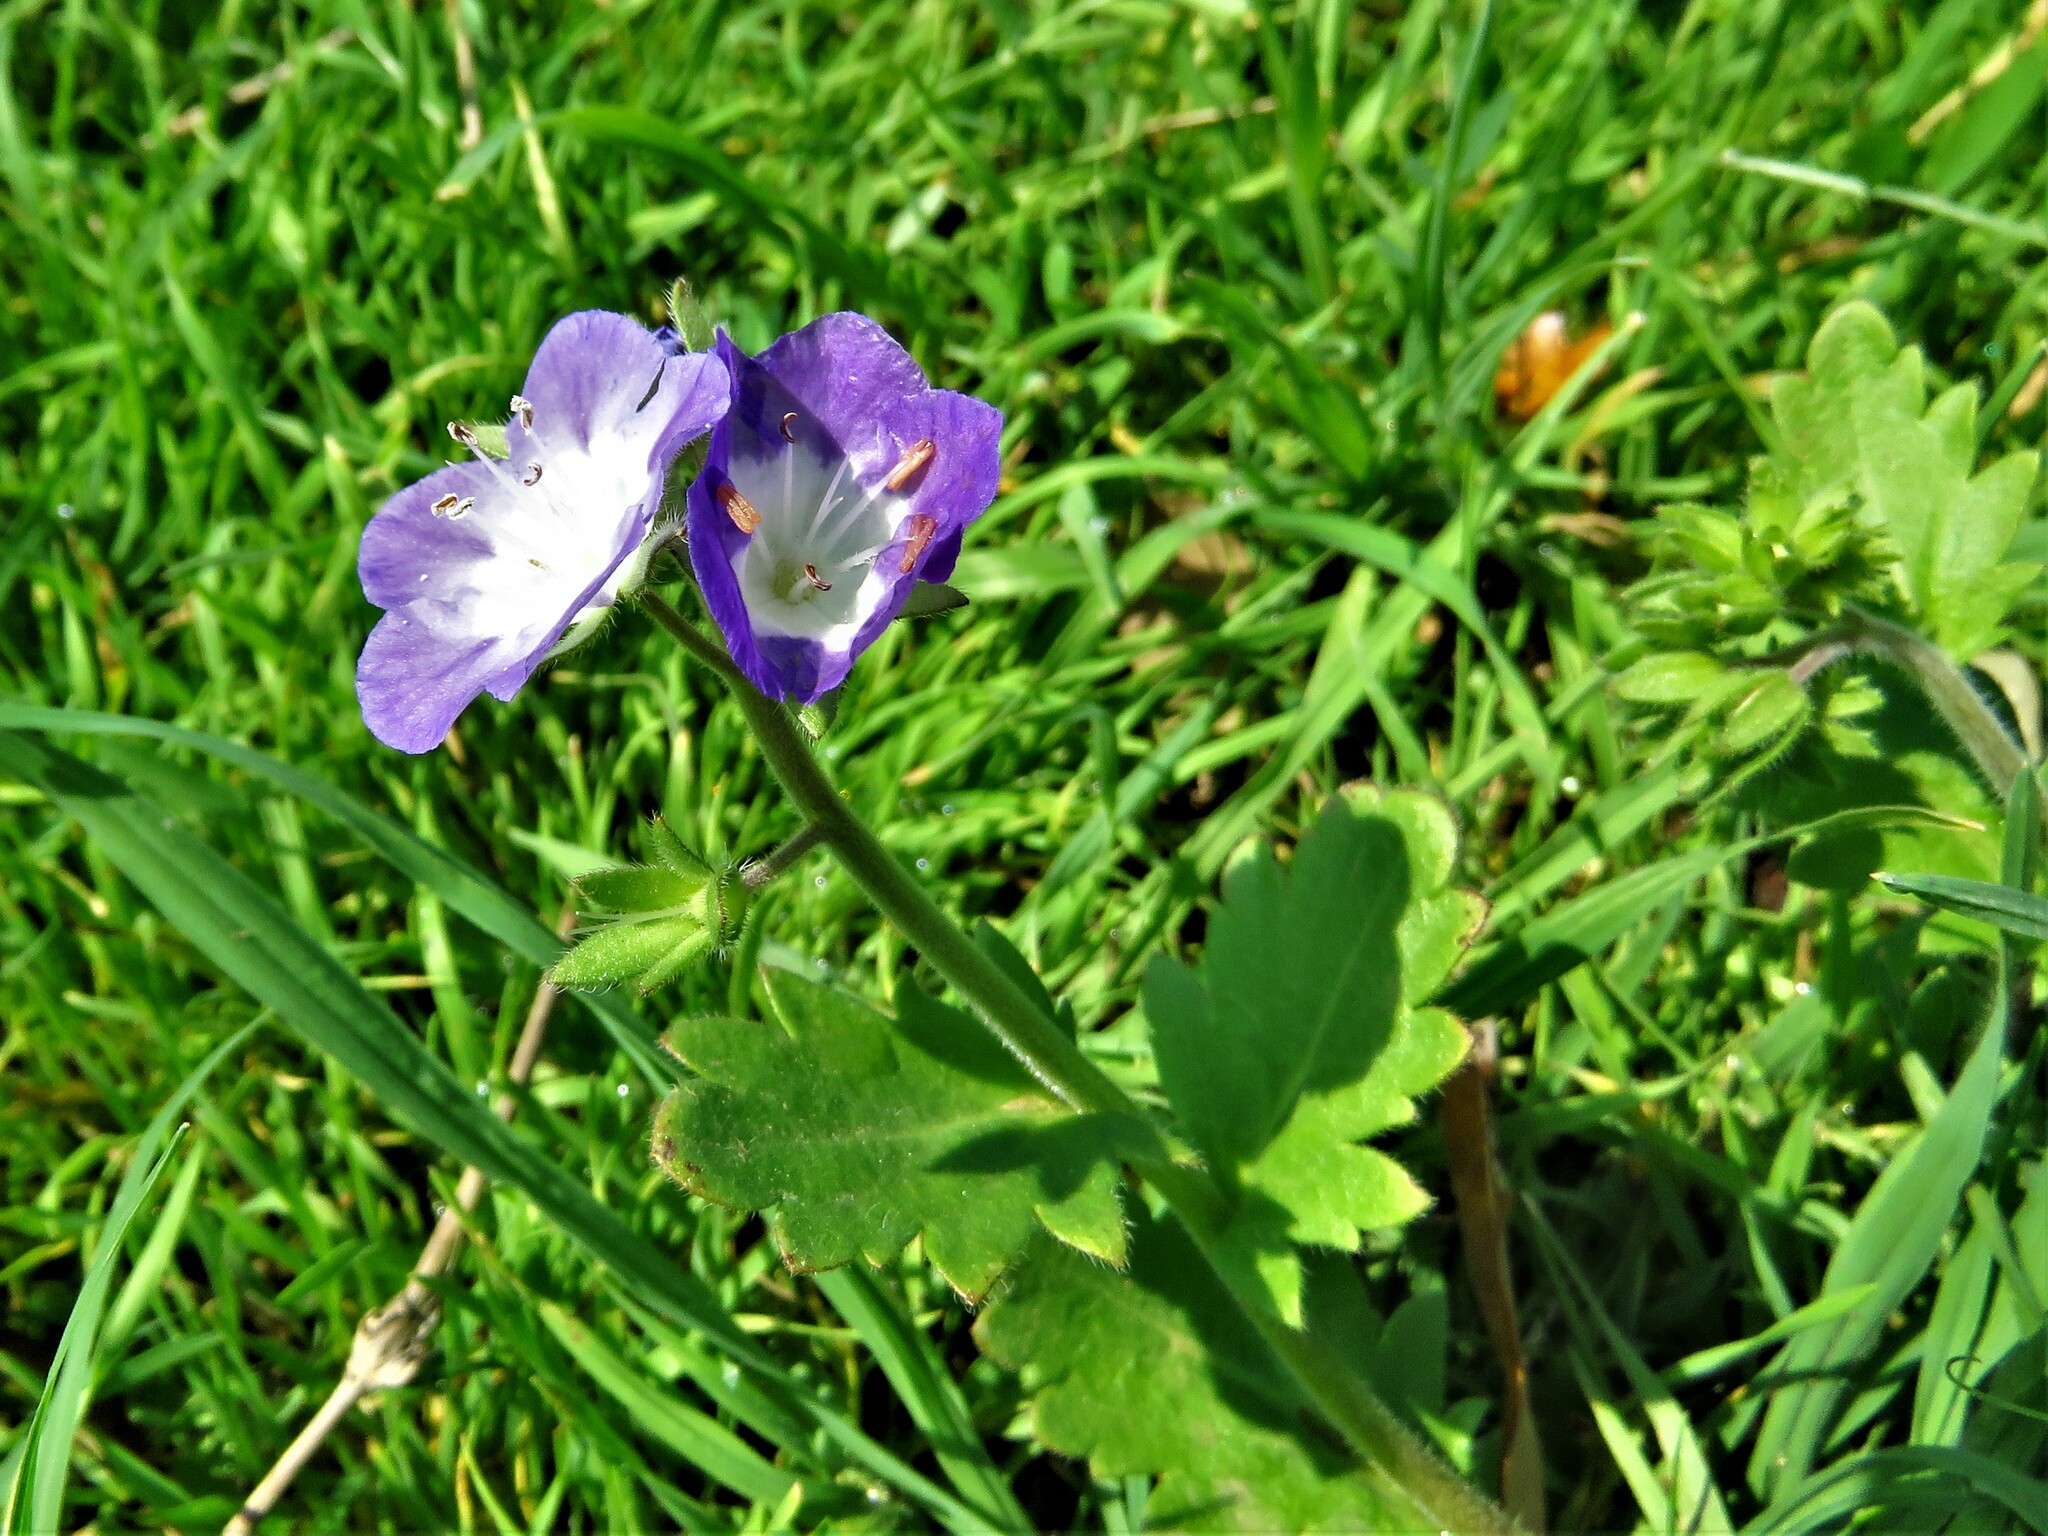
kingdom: Plantae
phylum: Tracheophyta
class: Magnoliopsida
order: Boraginales
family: Hydrophyllaceae
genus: Phacelia
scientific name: Phacelia patuliflora
